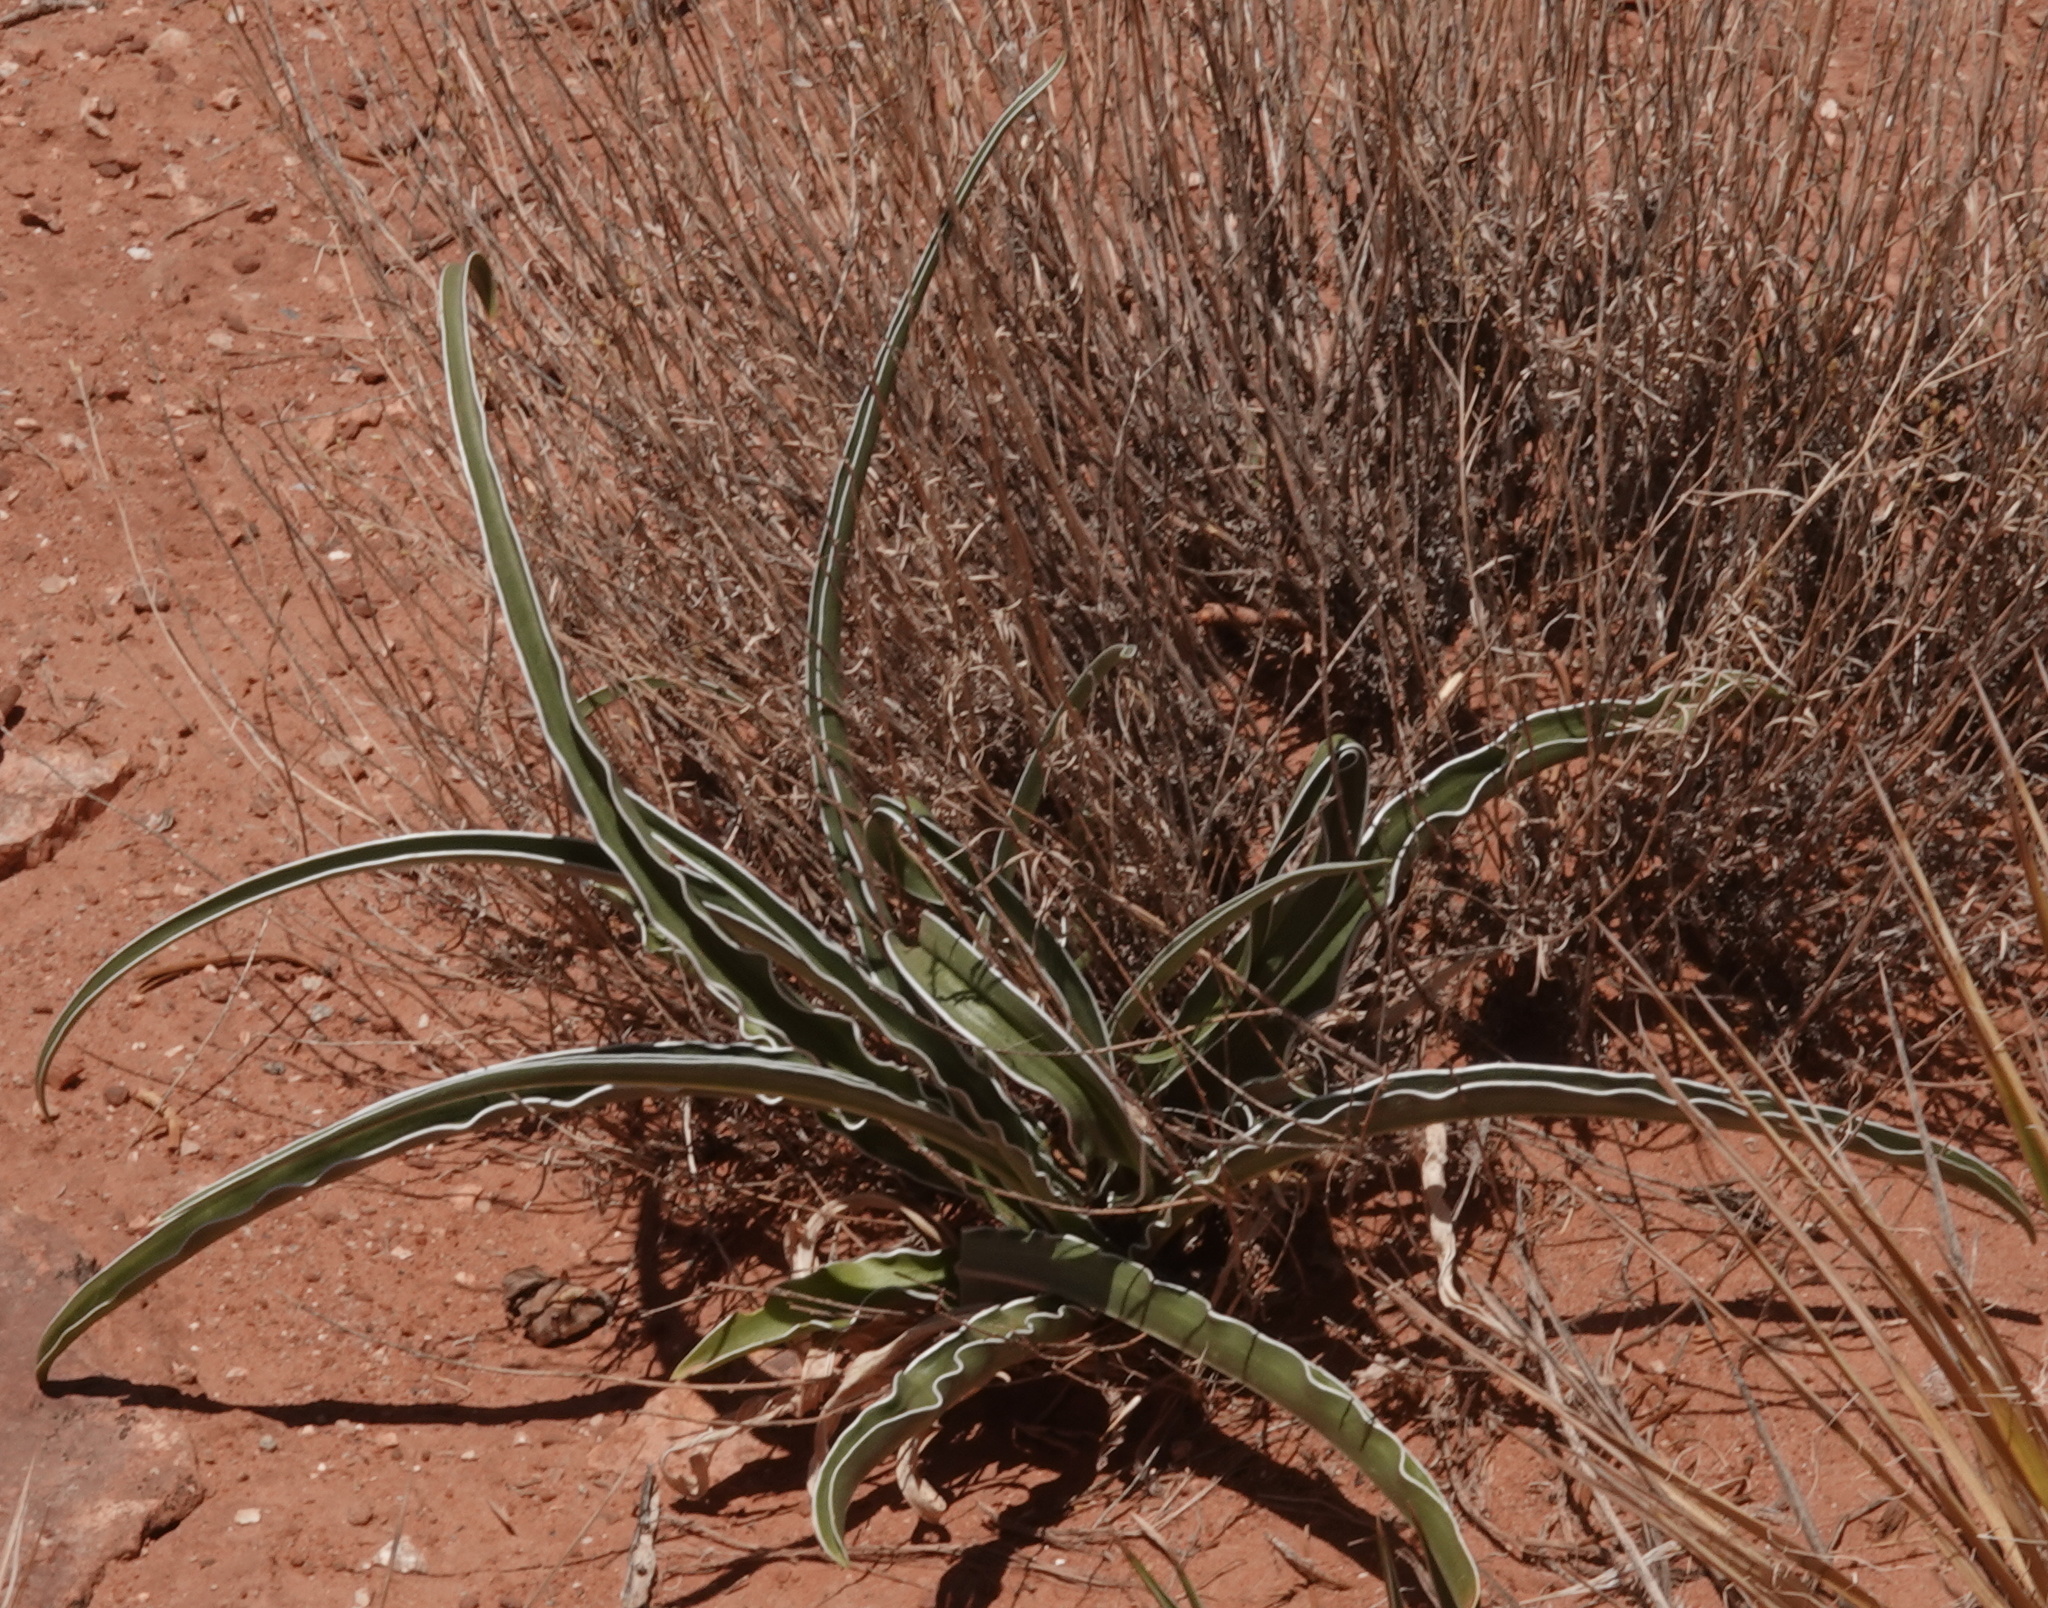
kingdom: Plantae
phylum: Tracheophyta
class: Magnoliopsida
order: Gentianales
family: Gentianaceae
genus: Frasera
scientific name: Frasera paniculata
